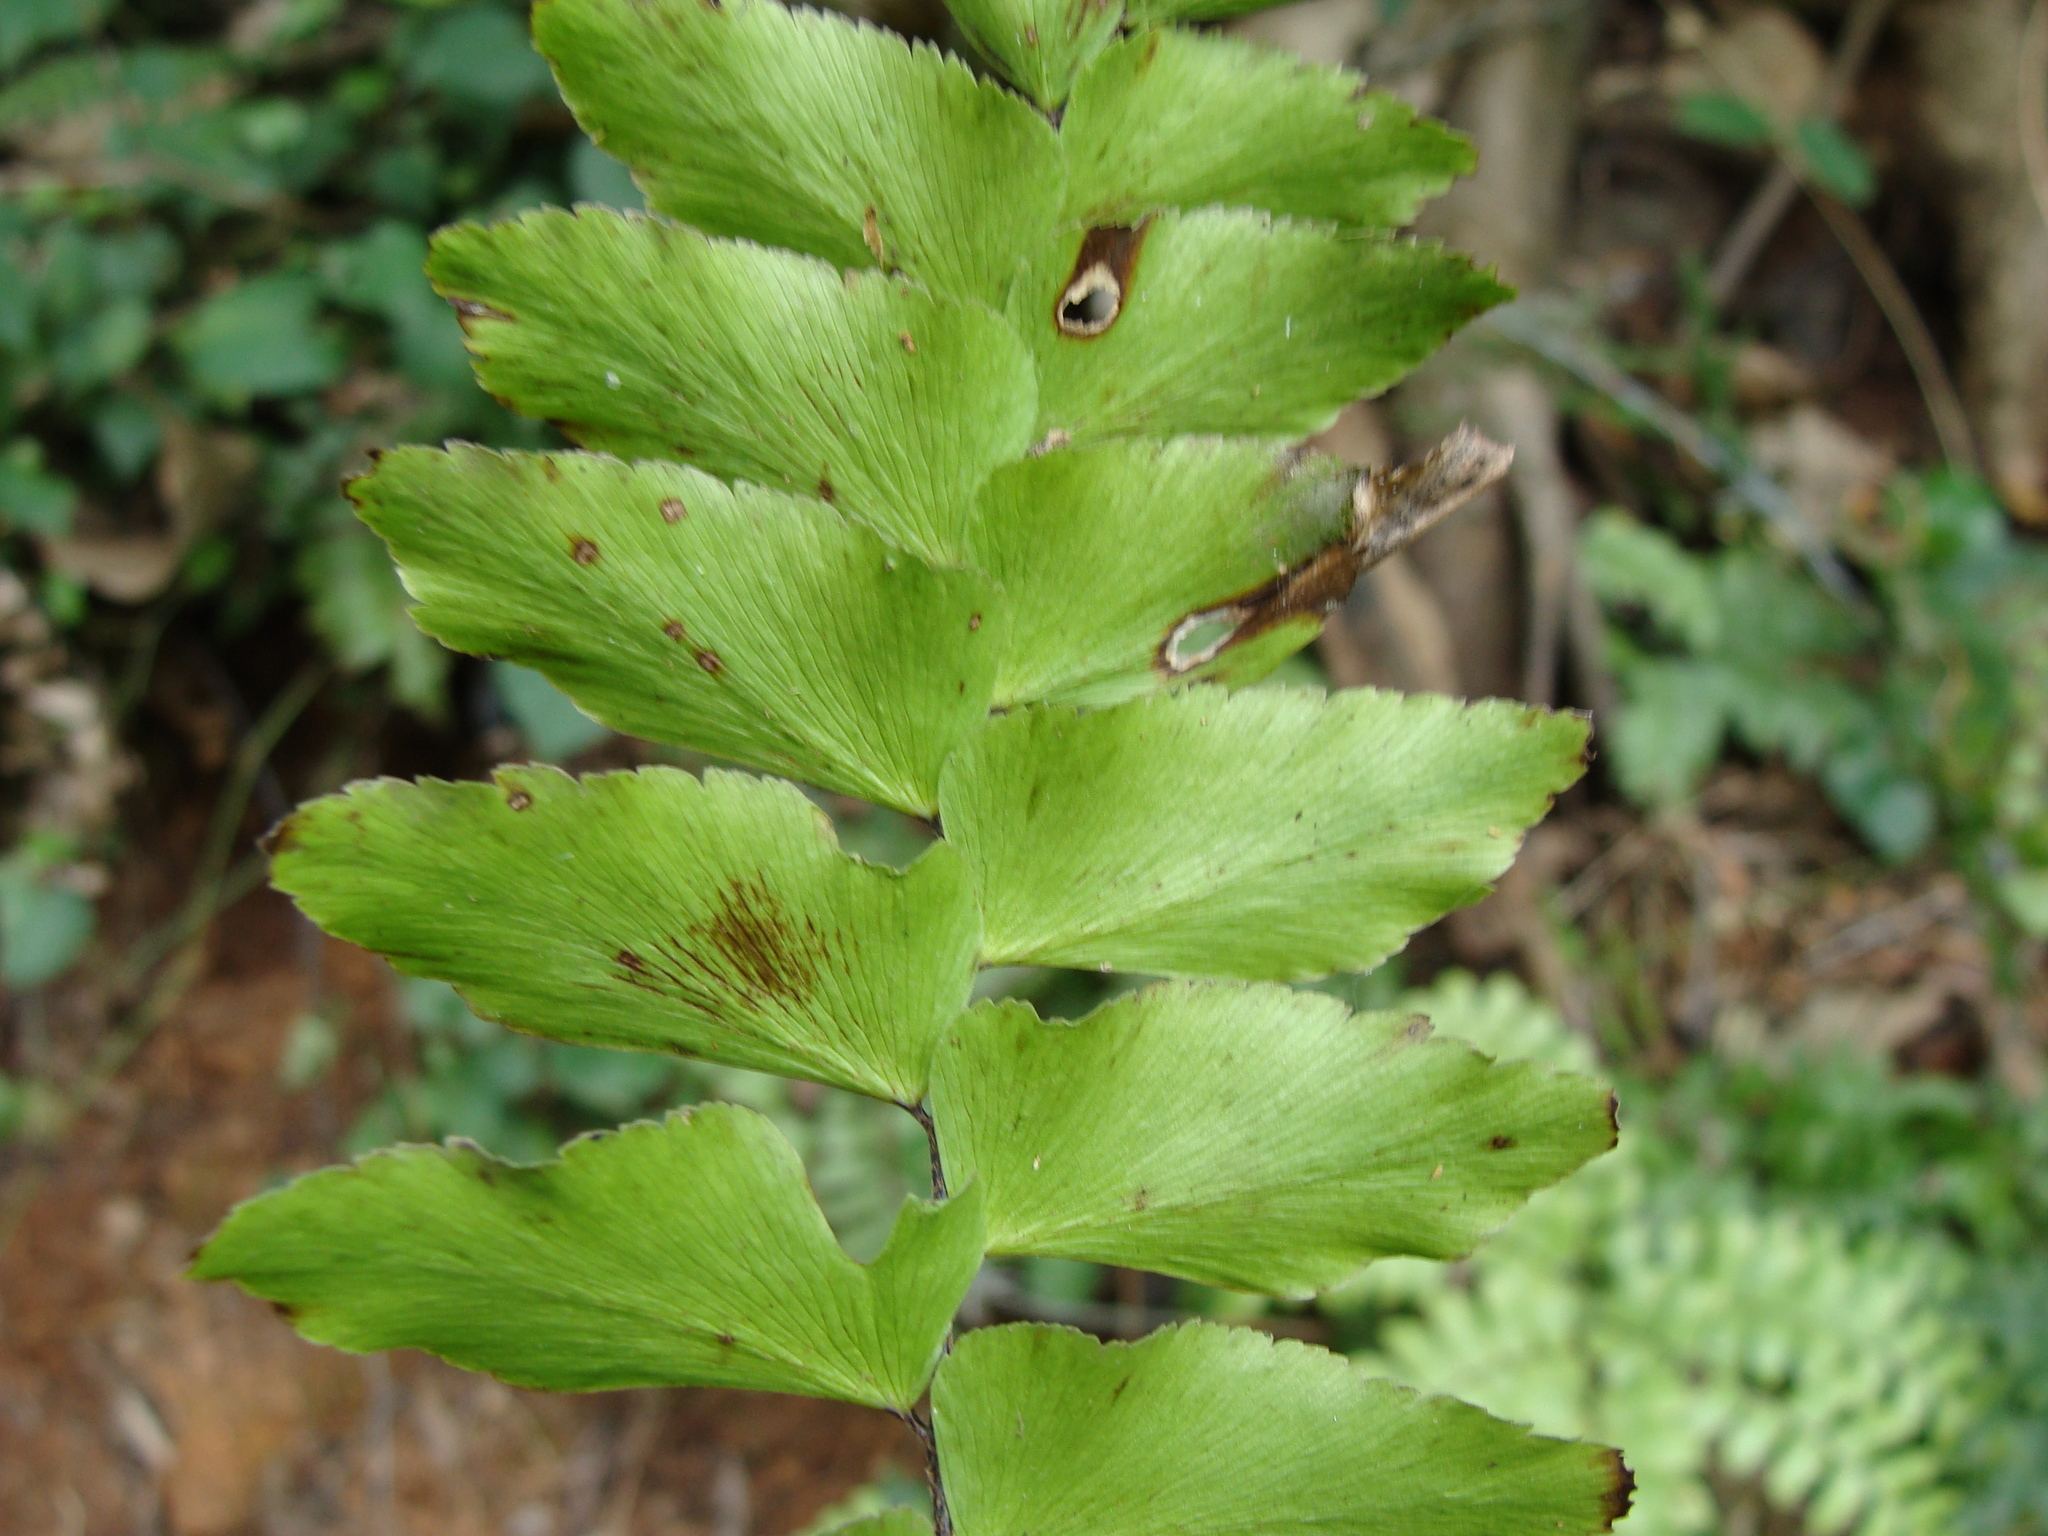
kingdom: Plantae
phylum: Tracheophyta
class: Polypodiopsida
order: Polypodiales
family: Pteridaceae
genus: Adiantum
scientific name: Adiantum mcvaughii
